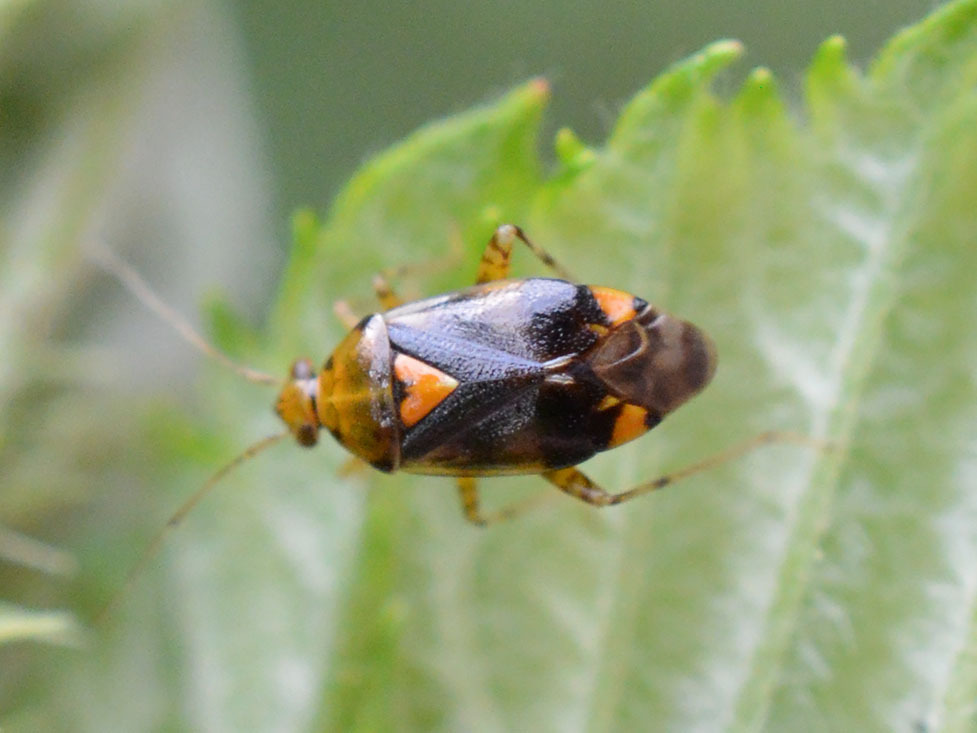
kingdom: Animalia
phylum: Arthropoda
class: Insecta
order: Hemiptera
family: Miridae
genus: Liocoris
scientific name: Liocoris tripustulatus
